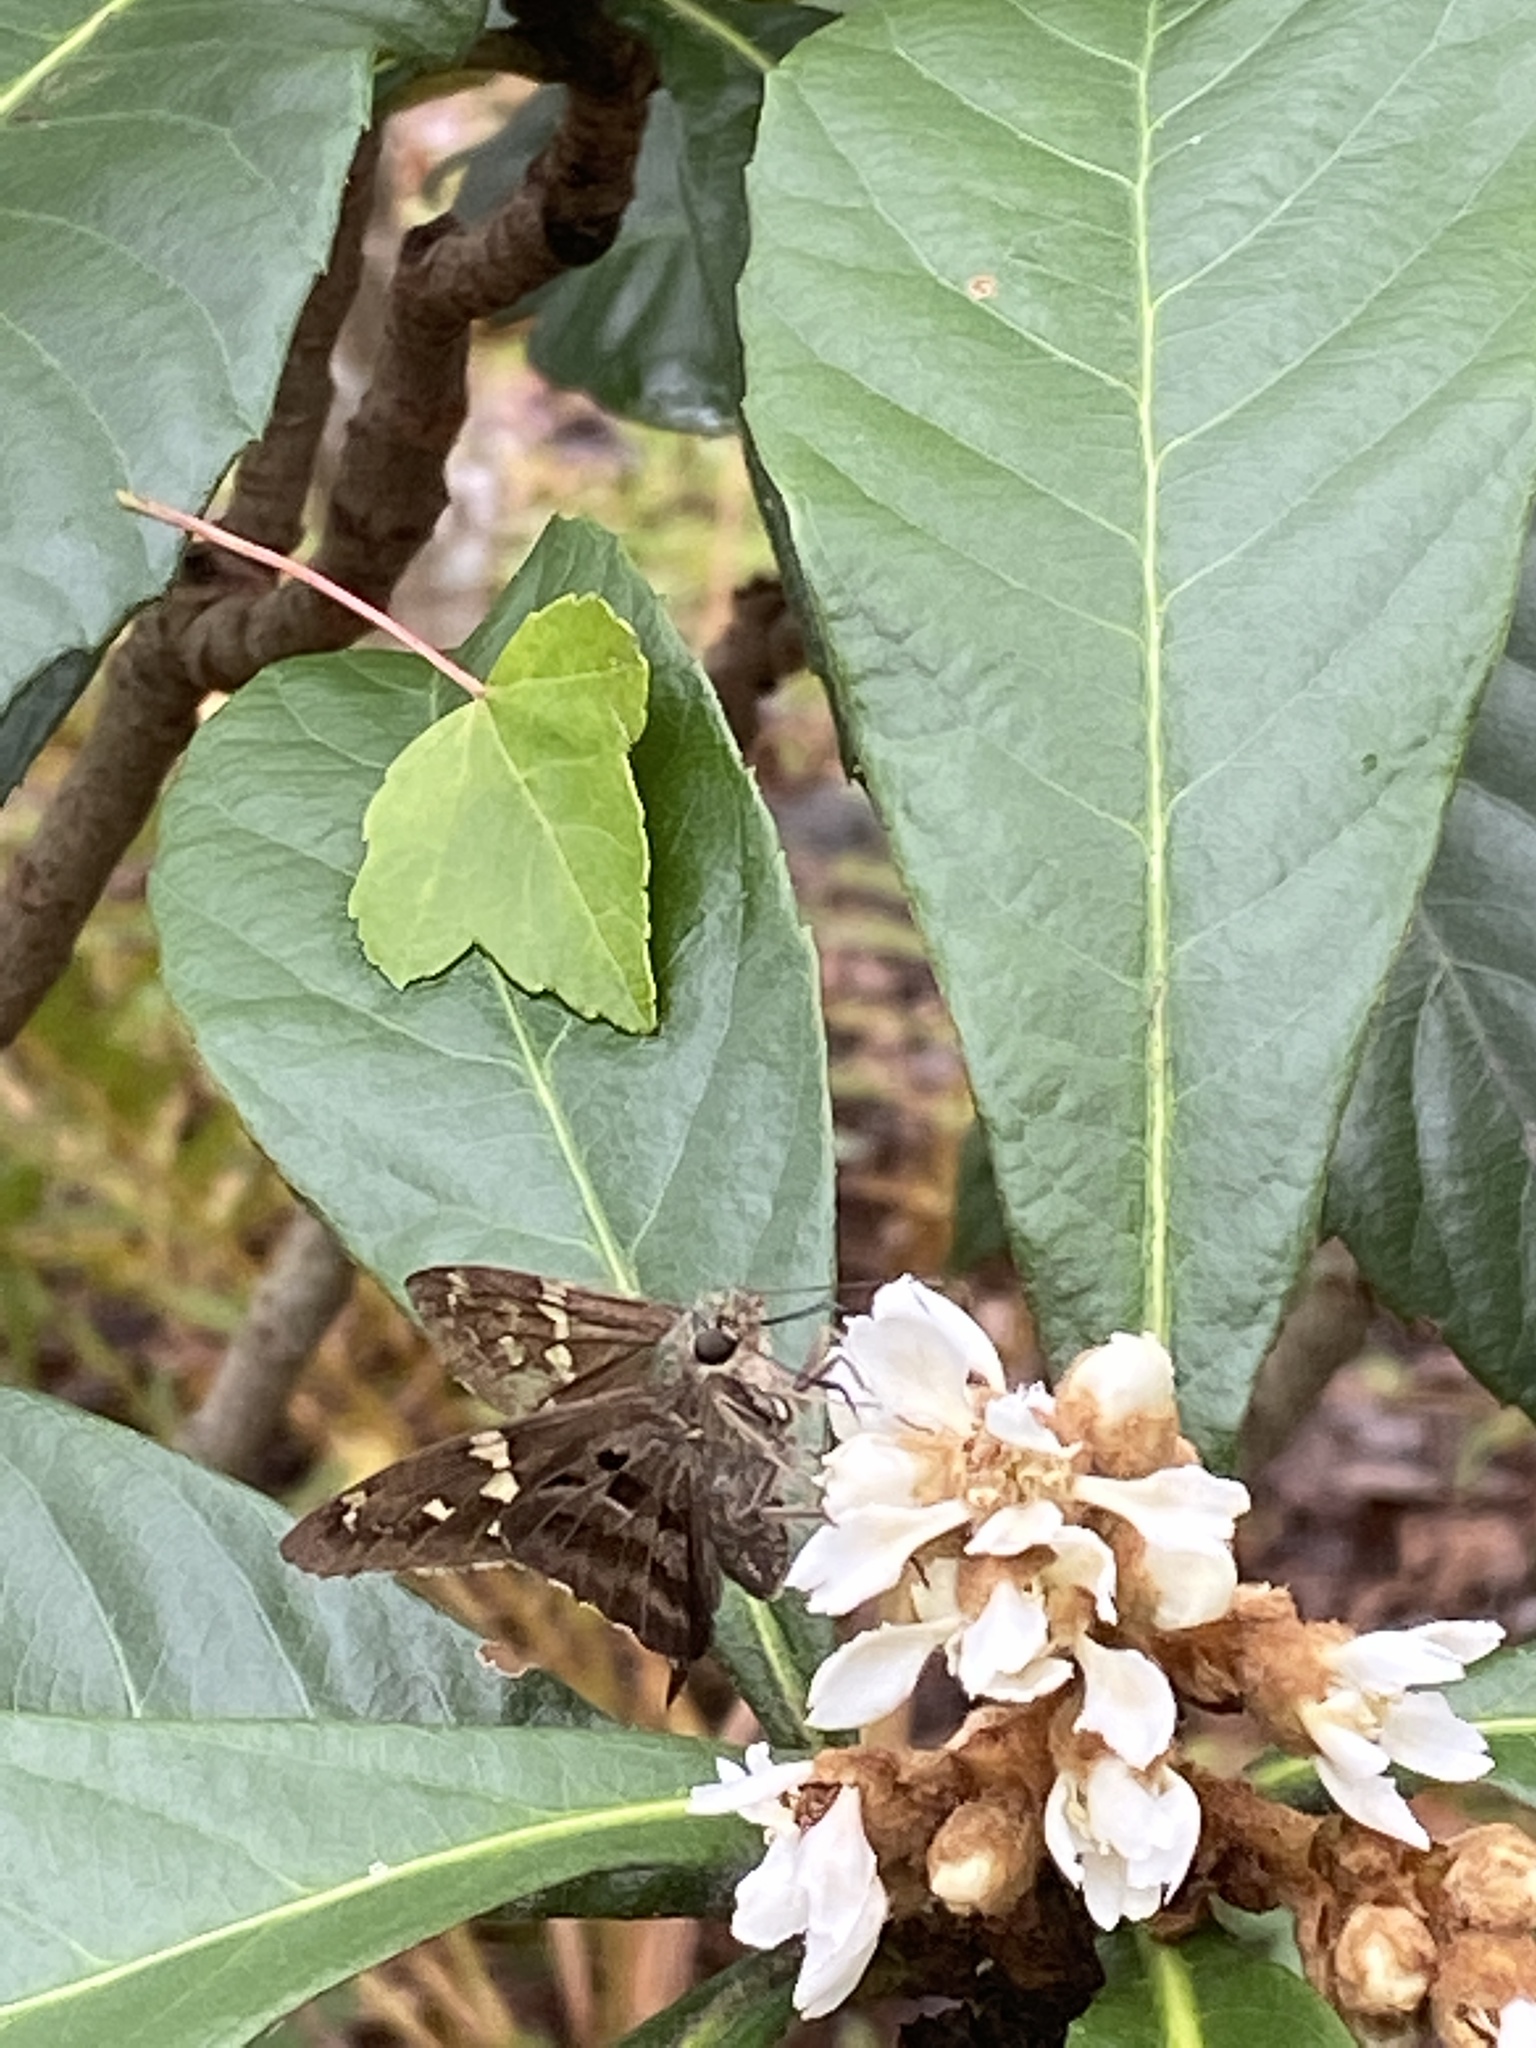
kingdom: Animalia
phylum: Arthropoda
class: Insecta
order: Lepidoptera
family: Hesperiidae
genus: Urbanus
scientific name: Urbanus proteus
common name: Long-tailed skipper
